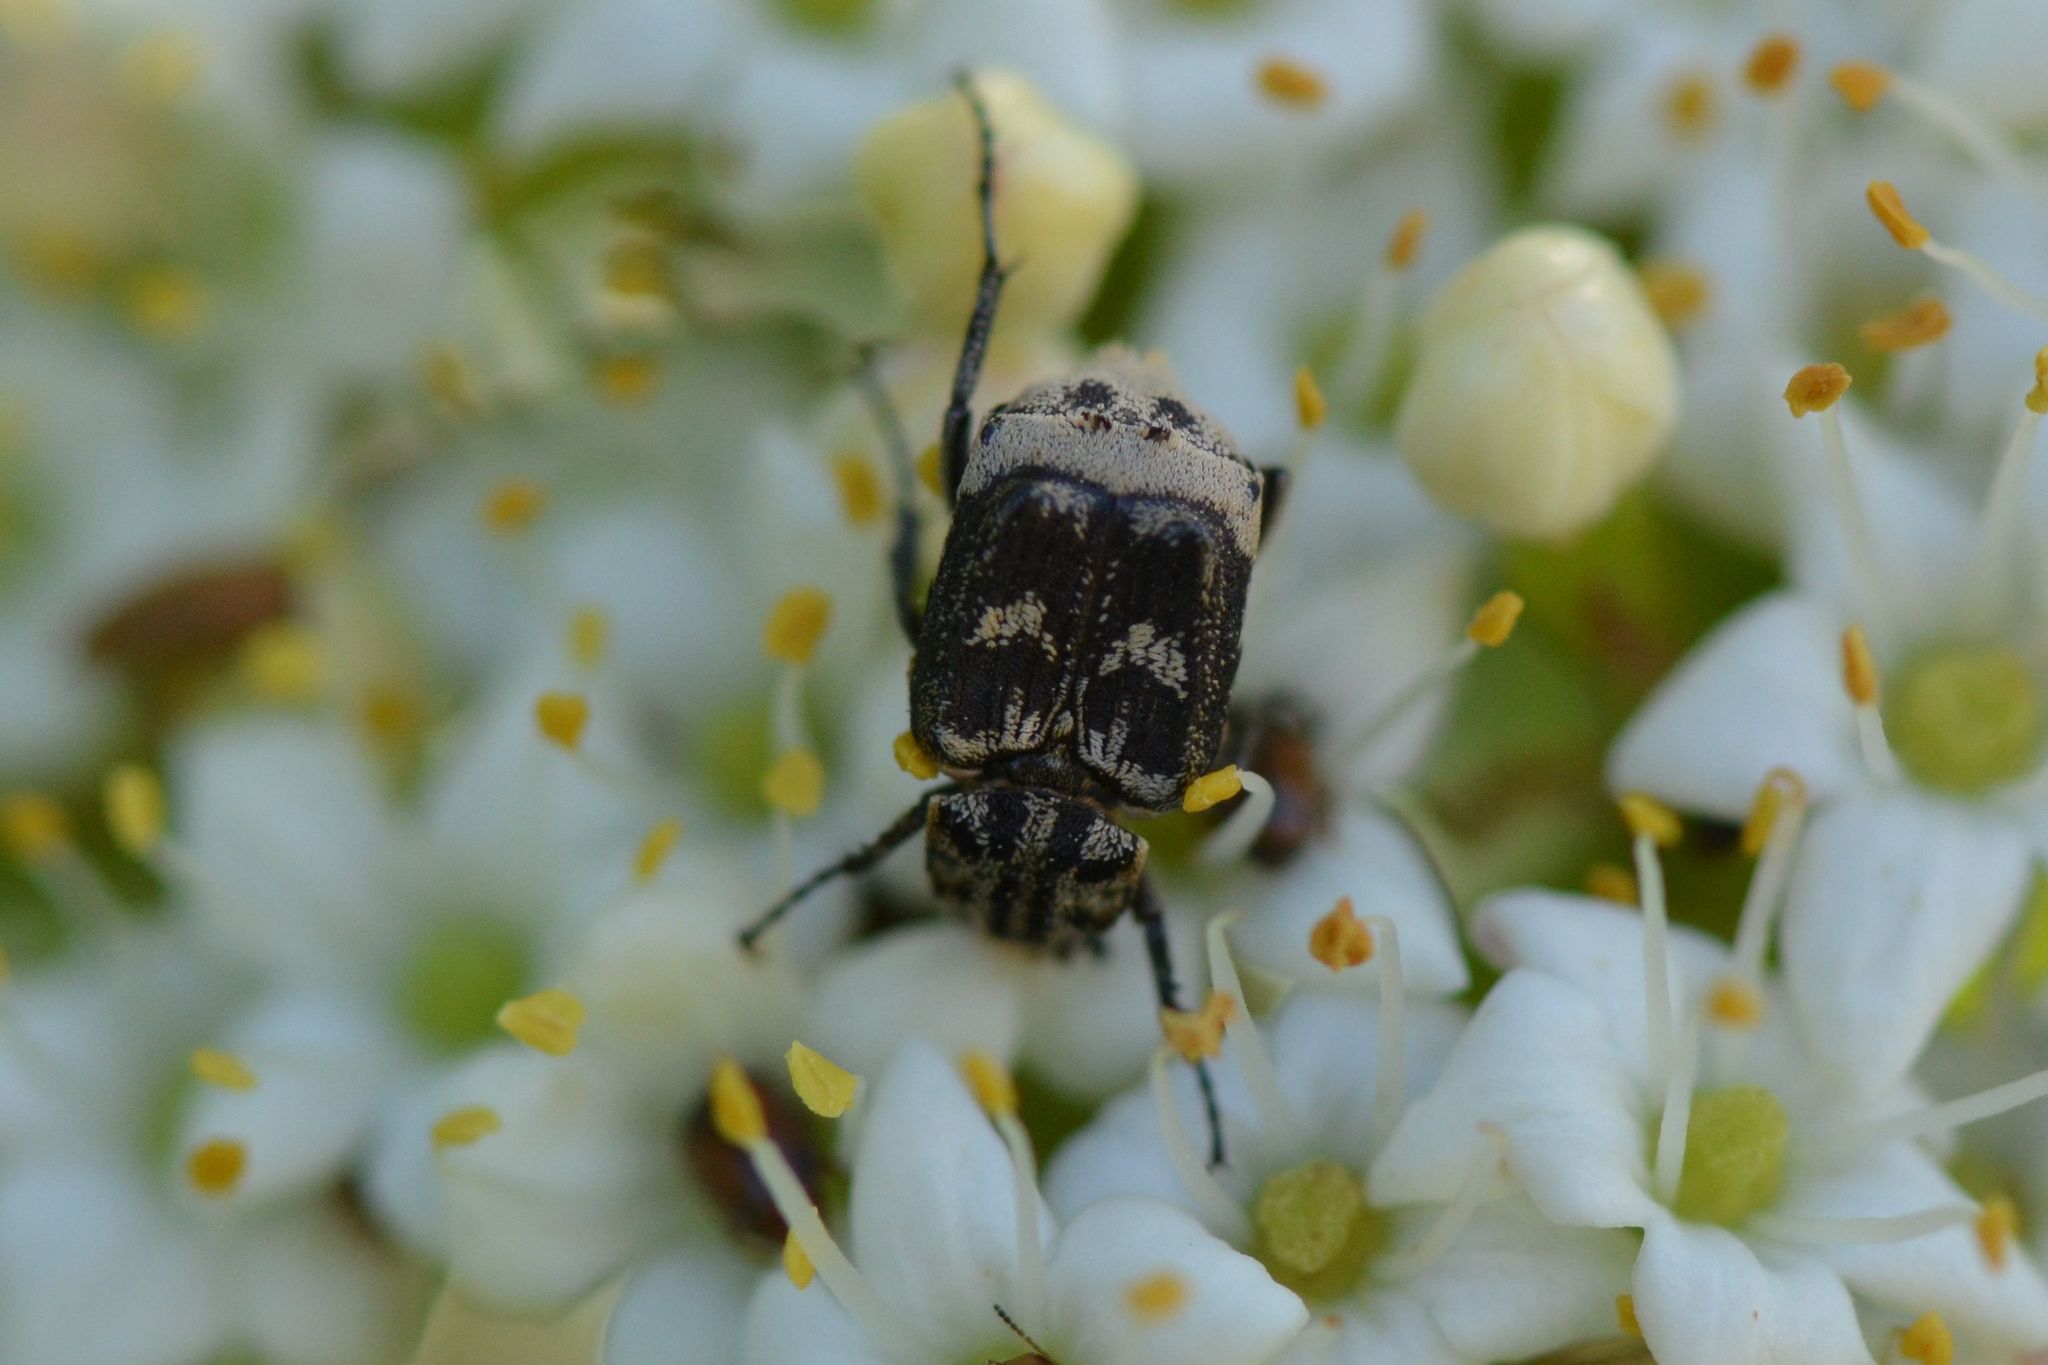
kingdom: Animalia
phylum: Arthropoda
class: Insecta
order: Coleoptera
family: Scarabaeidae
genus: Valgus
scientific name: Valgus hemipterus
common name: Bug flower chafer
